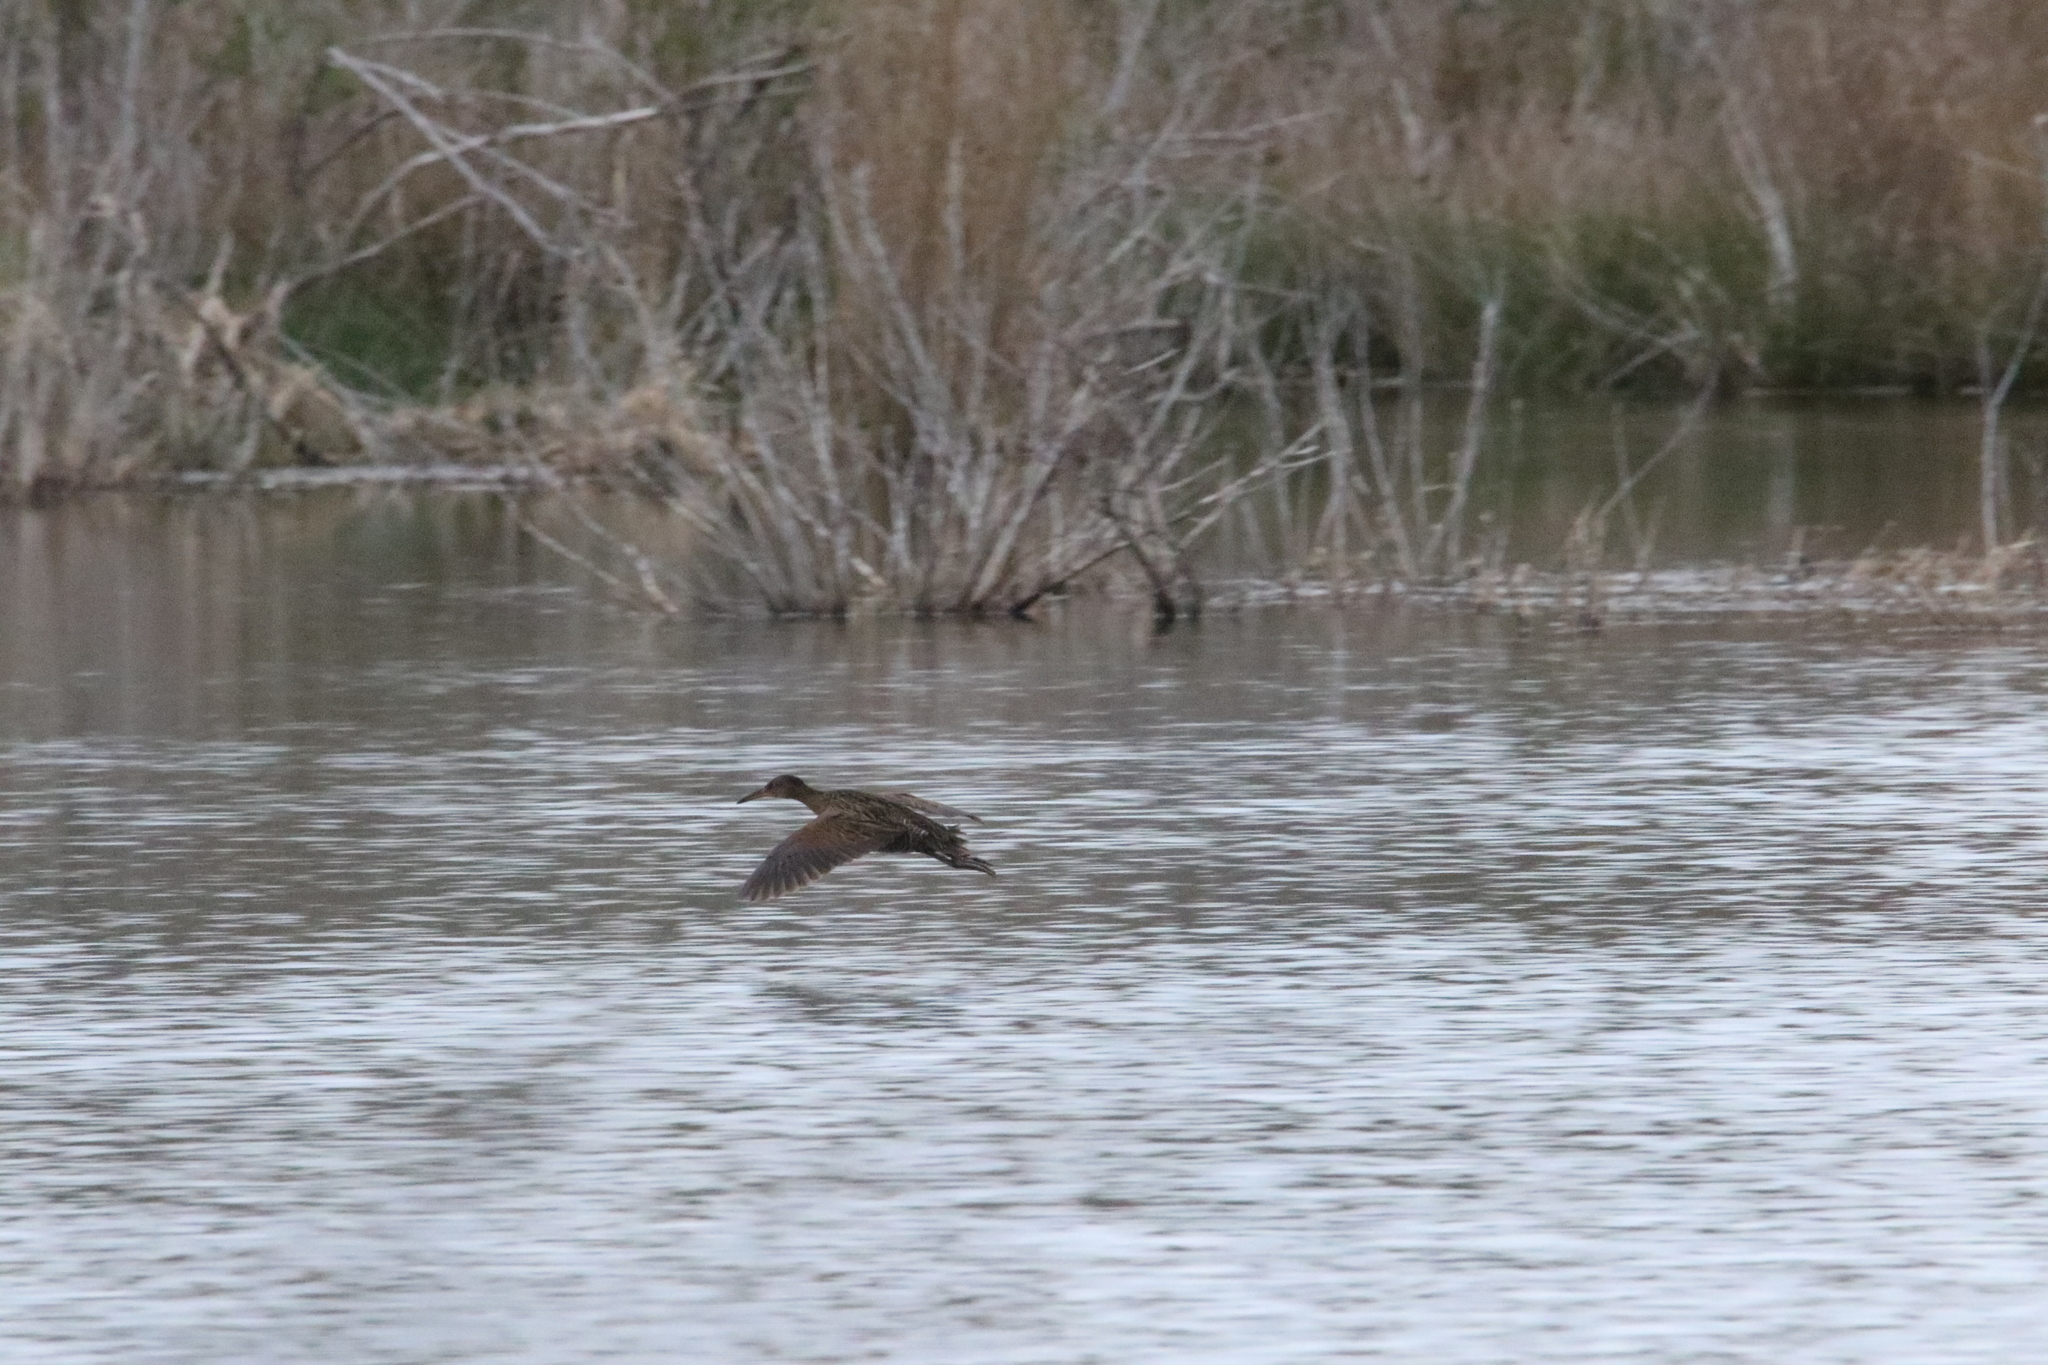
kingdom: Animalia
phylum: Chordata
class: Aves
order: Gruiformes
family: Rallidae
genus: Rallus
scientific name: Rallus elegans
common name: King rail
